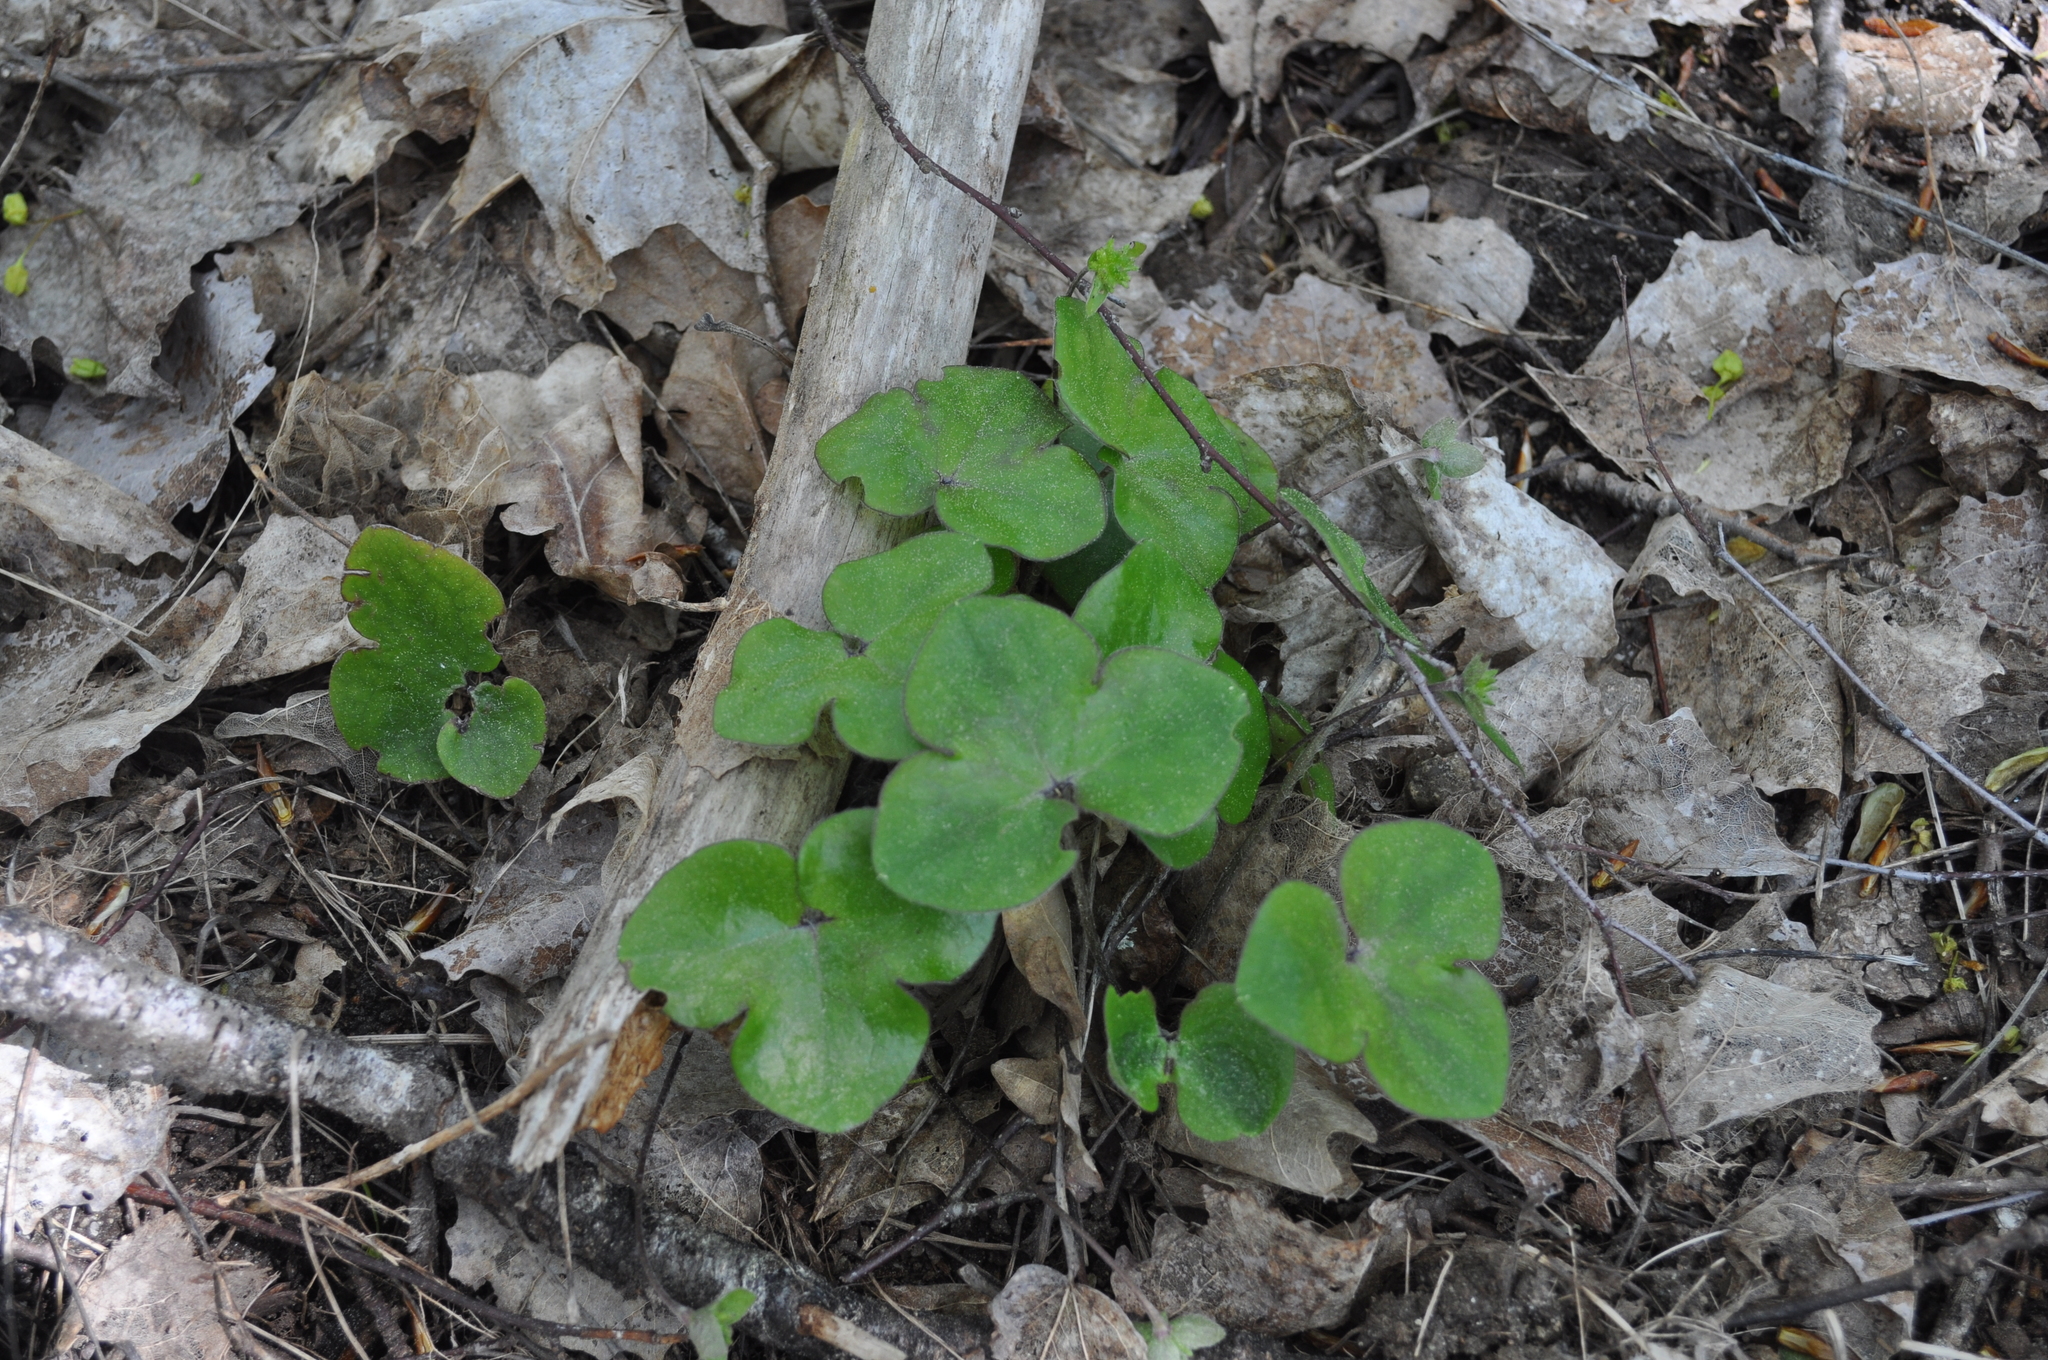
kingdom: Plantae
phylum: Tracheophyta
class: Magnoliopsida
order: Ranunculales
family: Ranunculaceae
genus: Hepatica
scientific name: Hepatica nobilis
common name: Liverleaf
